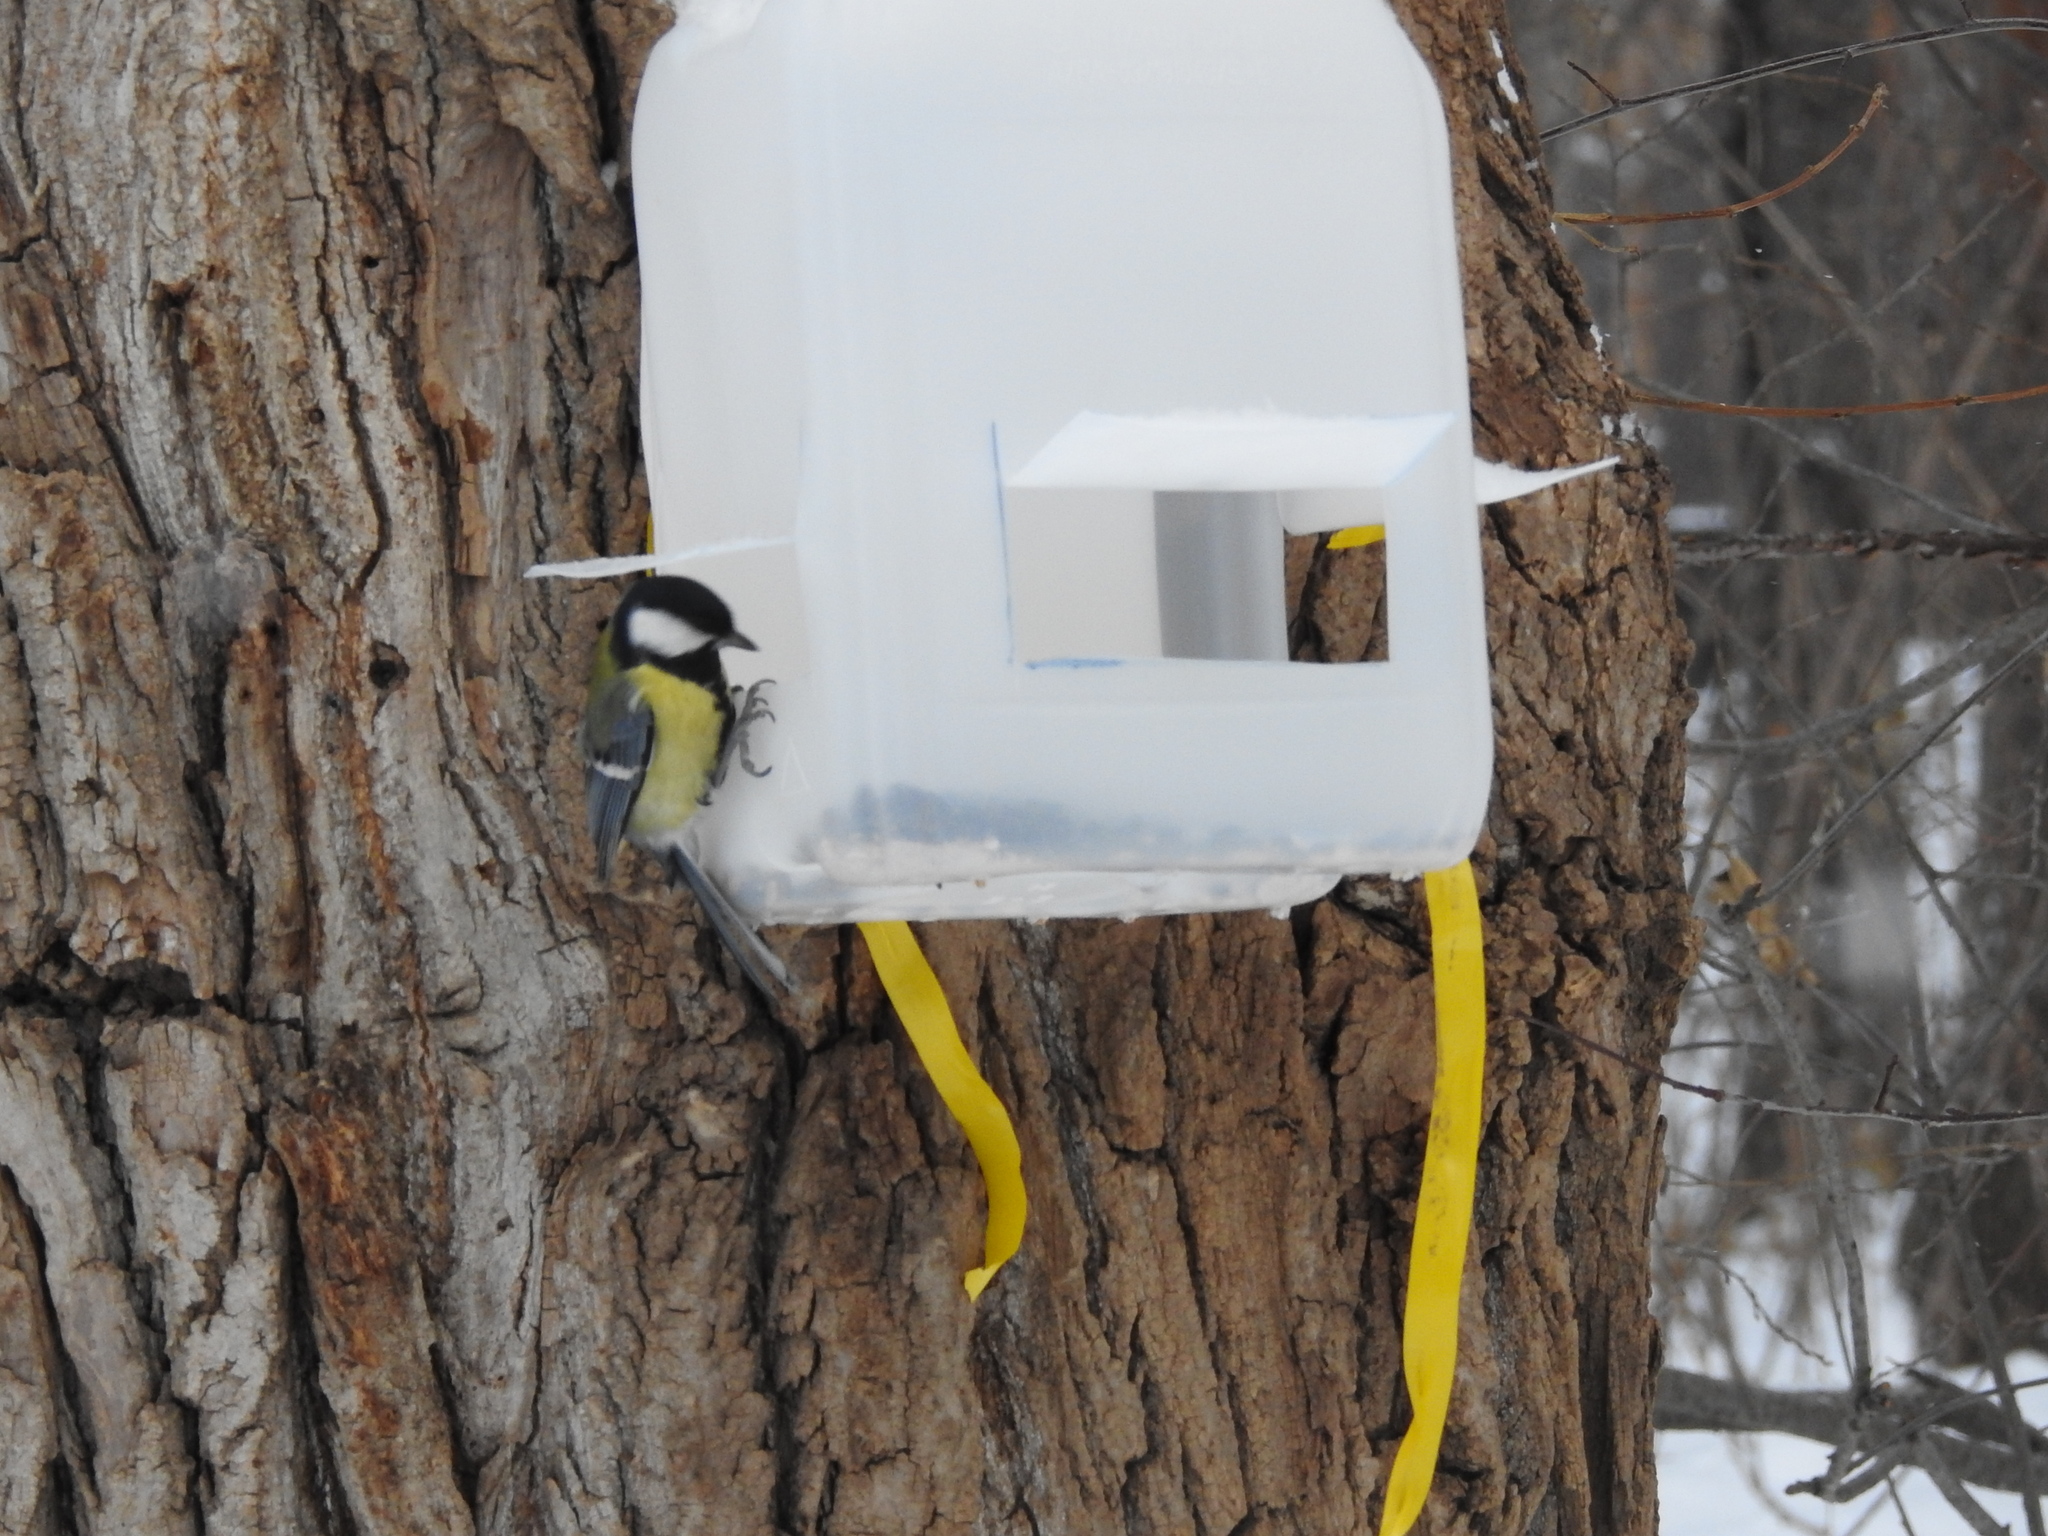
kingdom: Animalia
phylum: Chordata
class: Aves
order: Passeriformes
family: Paridae
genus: Parus
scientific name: Parus major
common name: Great tit
